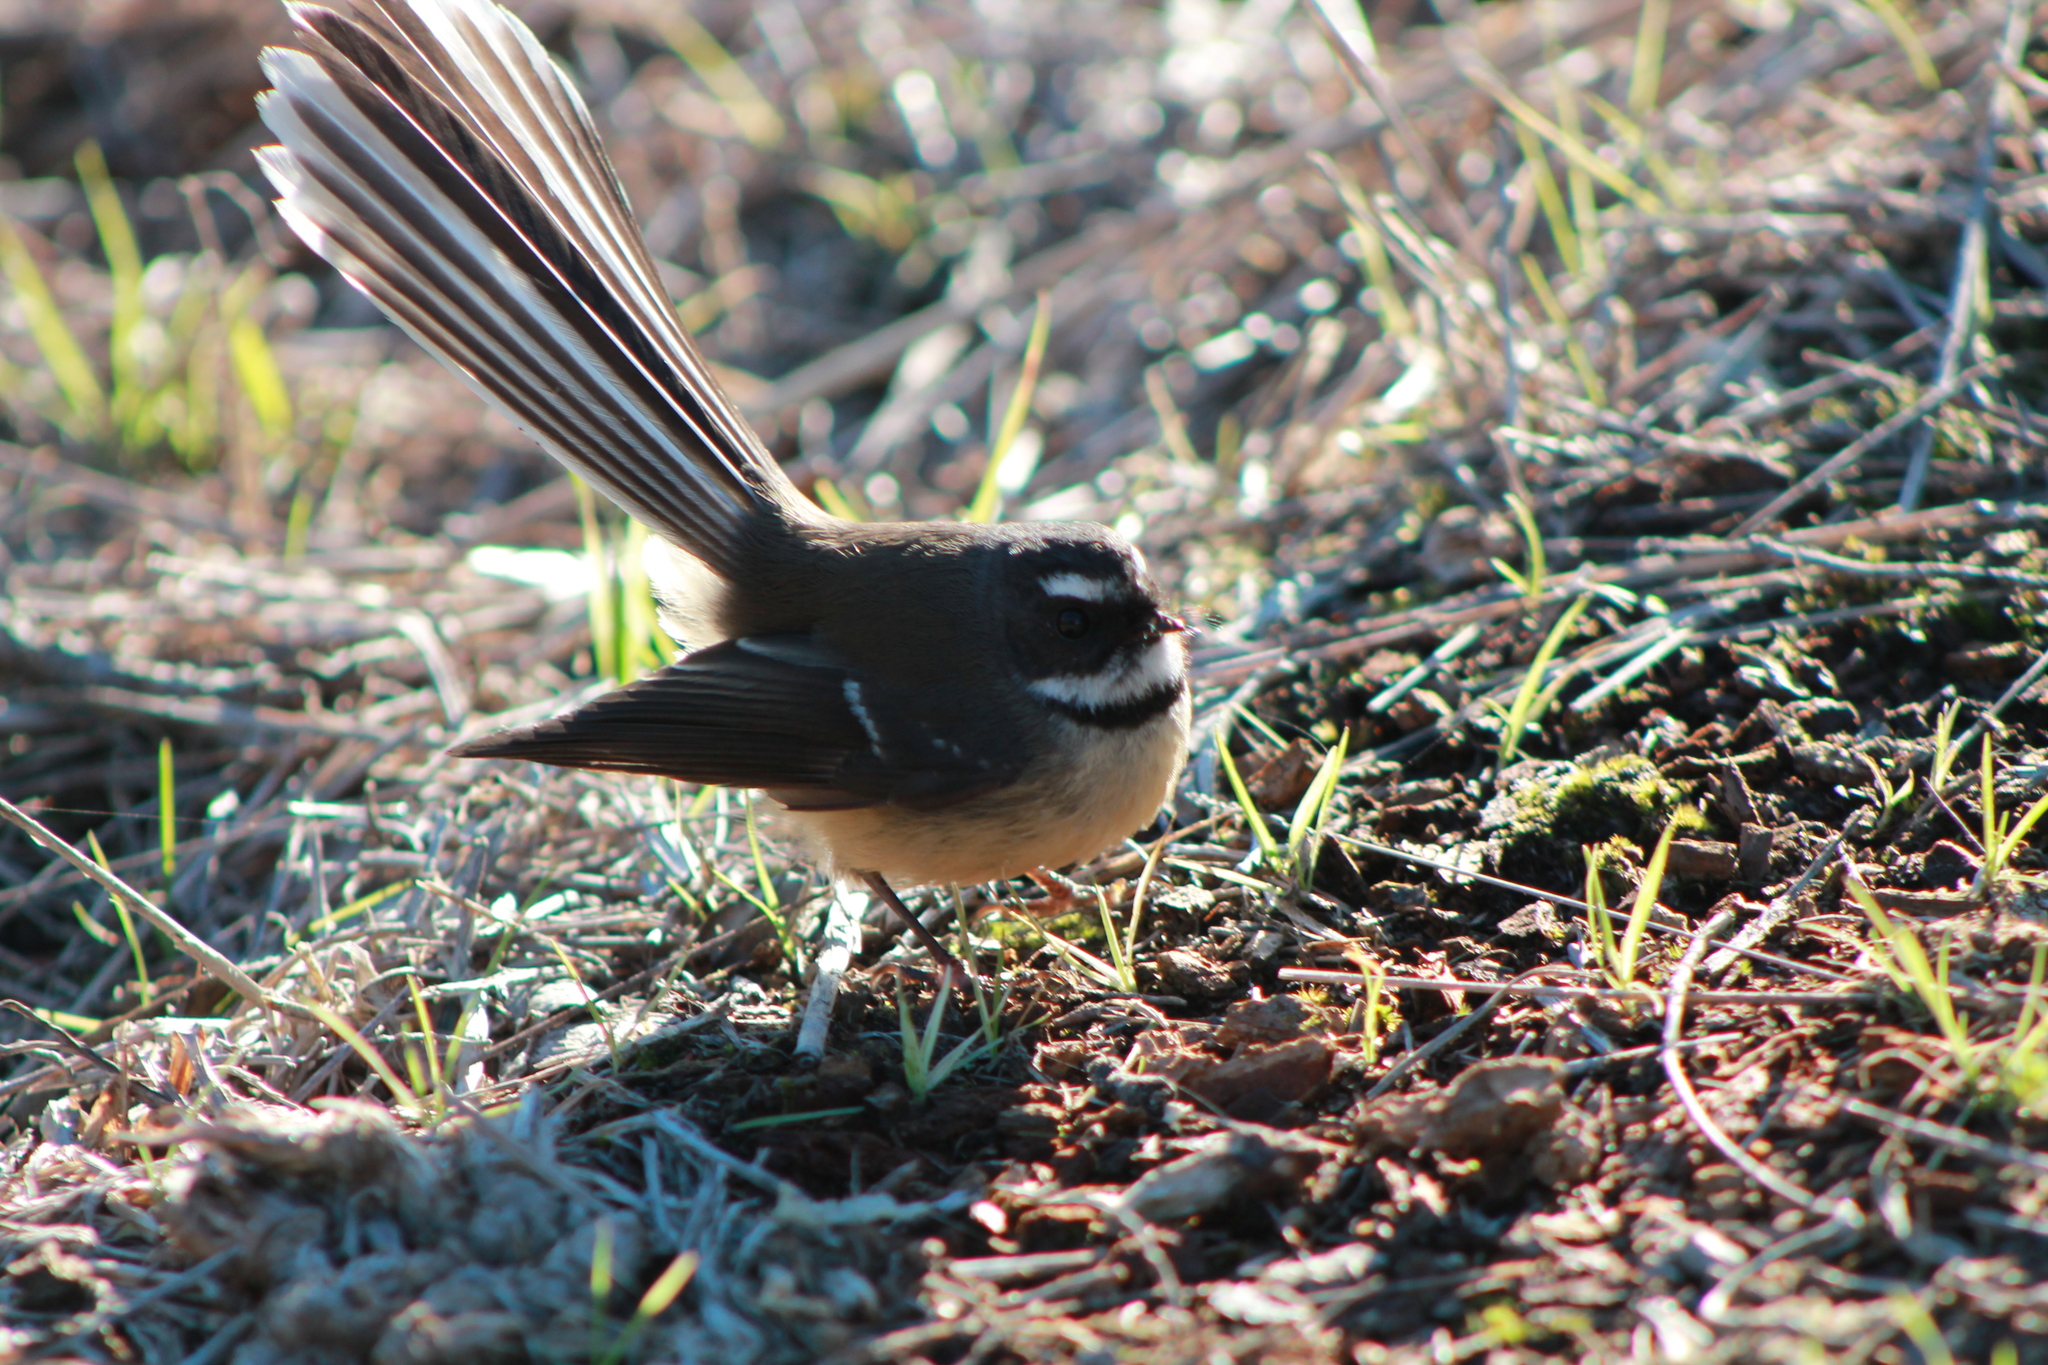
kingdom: Animalia
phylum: Chordata
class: Aves
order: Passeriformes
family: Rhipiduridae
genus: Rhipidura
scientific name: Rhipidura fuliginosa
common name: New zealand fantail
